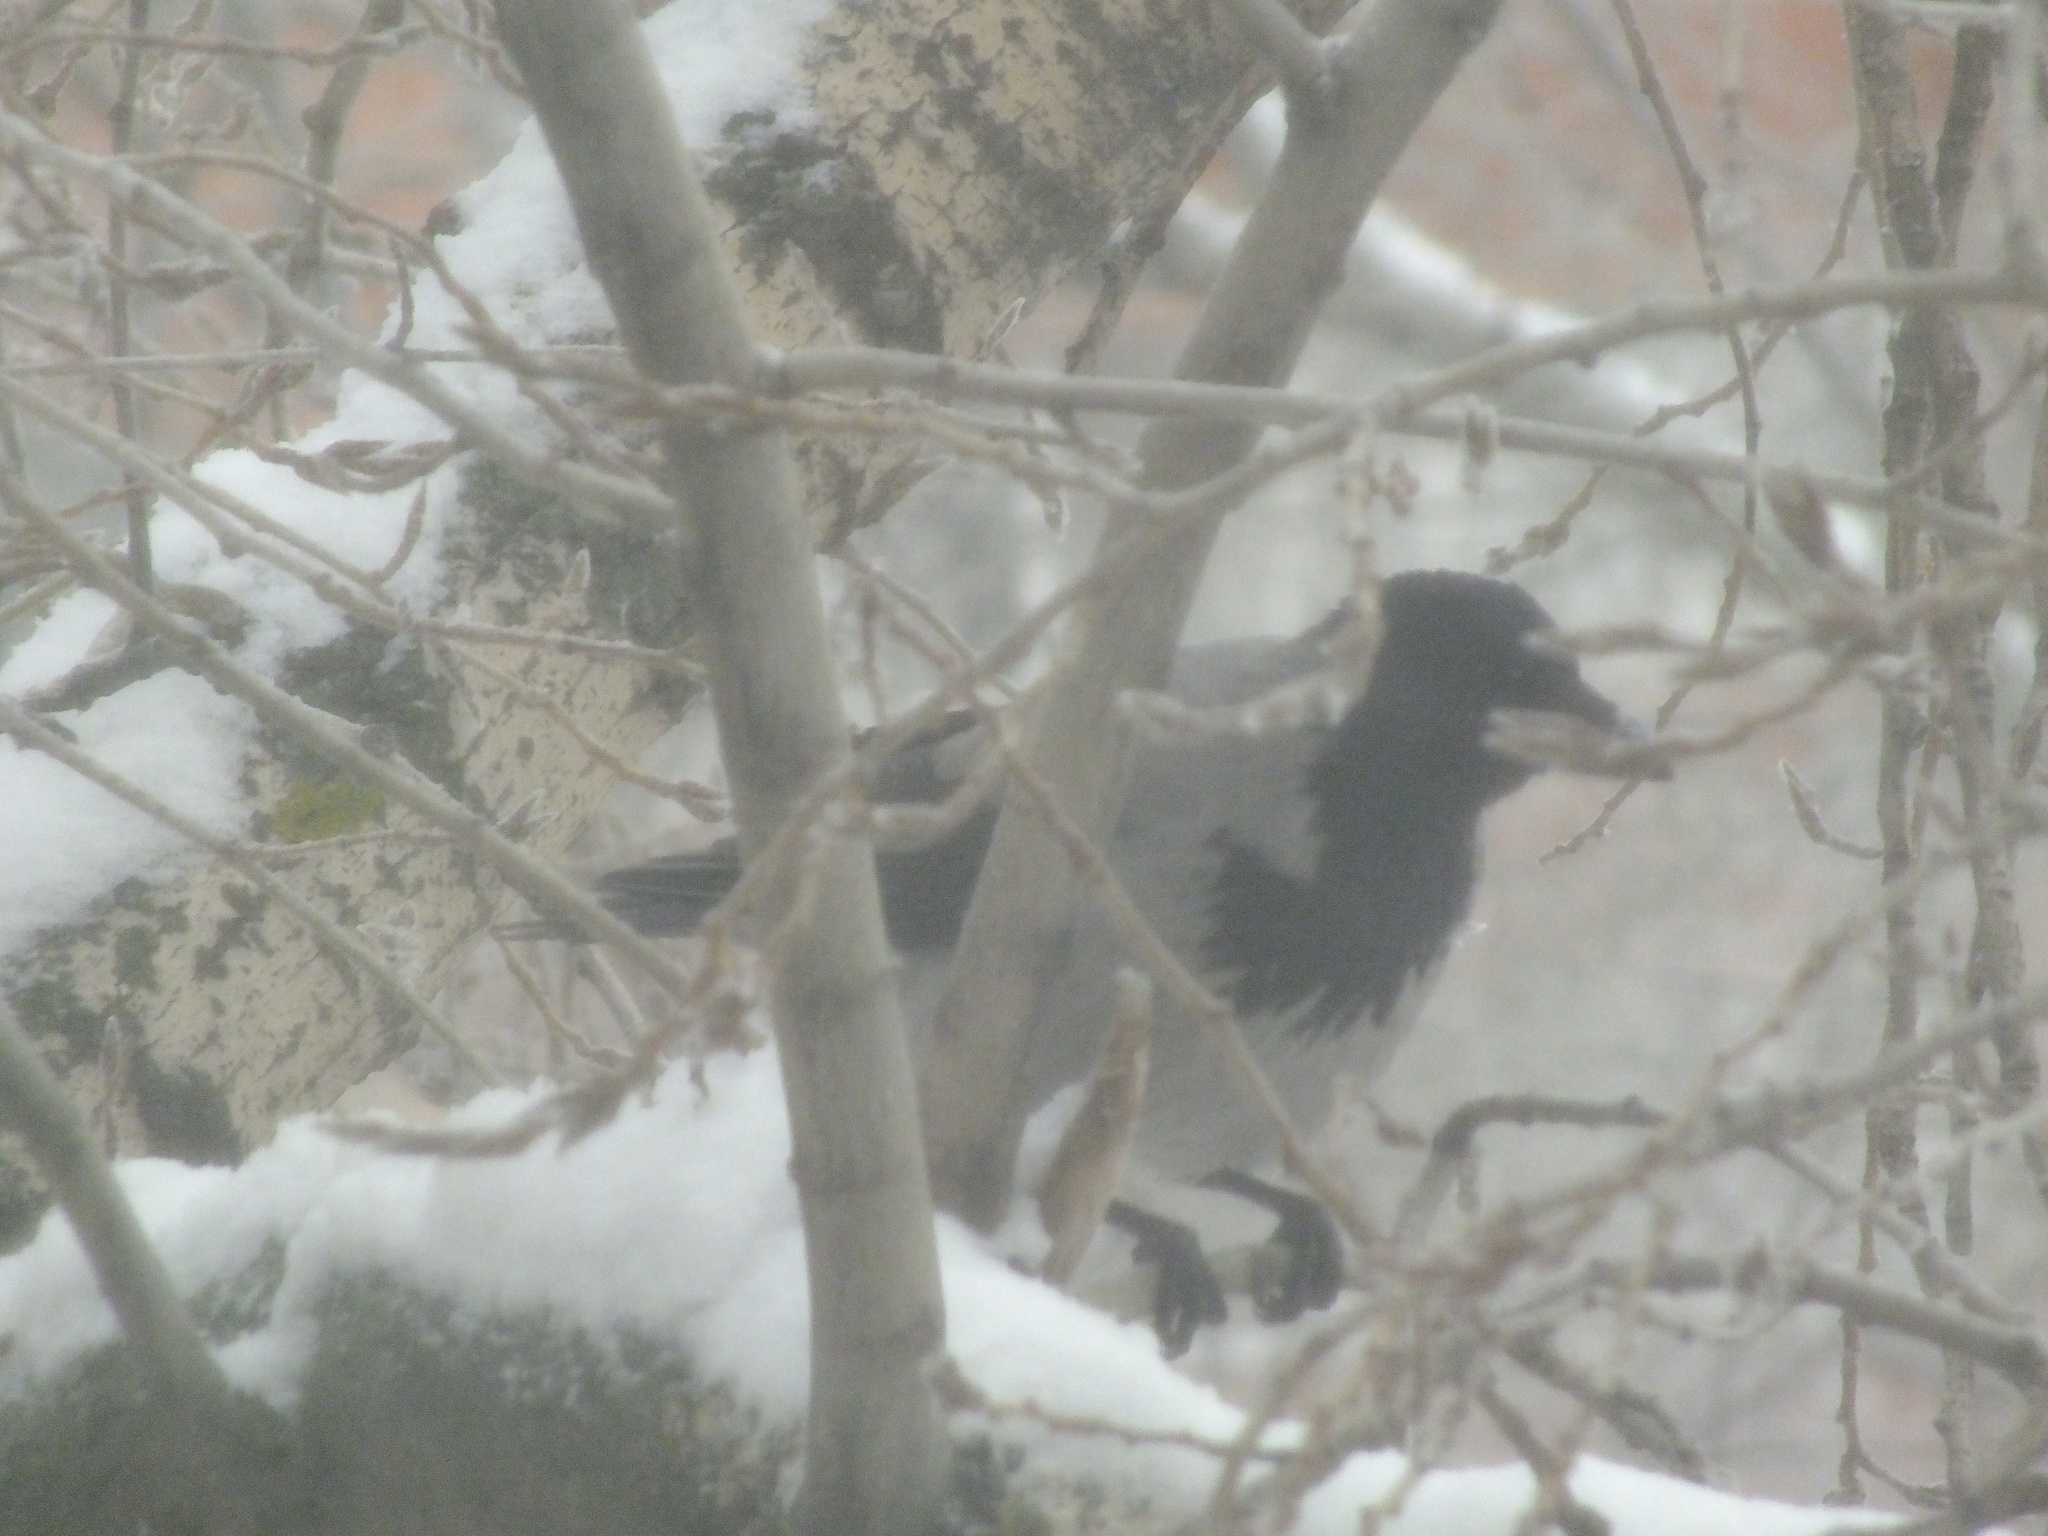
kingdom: Animalia
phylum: Chordata
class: Aves
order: Passeriformes
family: Corvidae
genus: Corvus
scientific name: Corvus cornix
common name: Hooded crow
